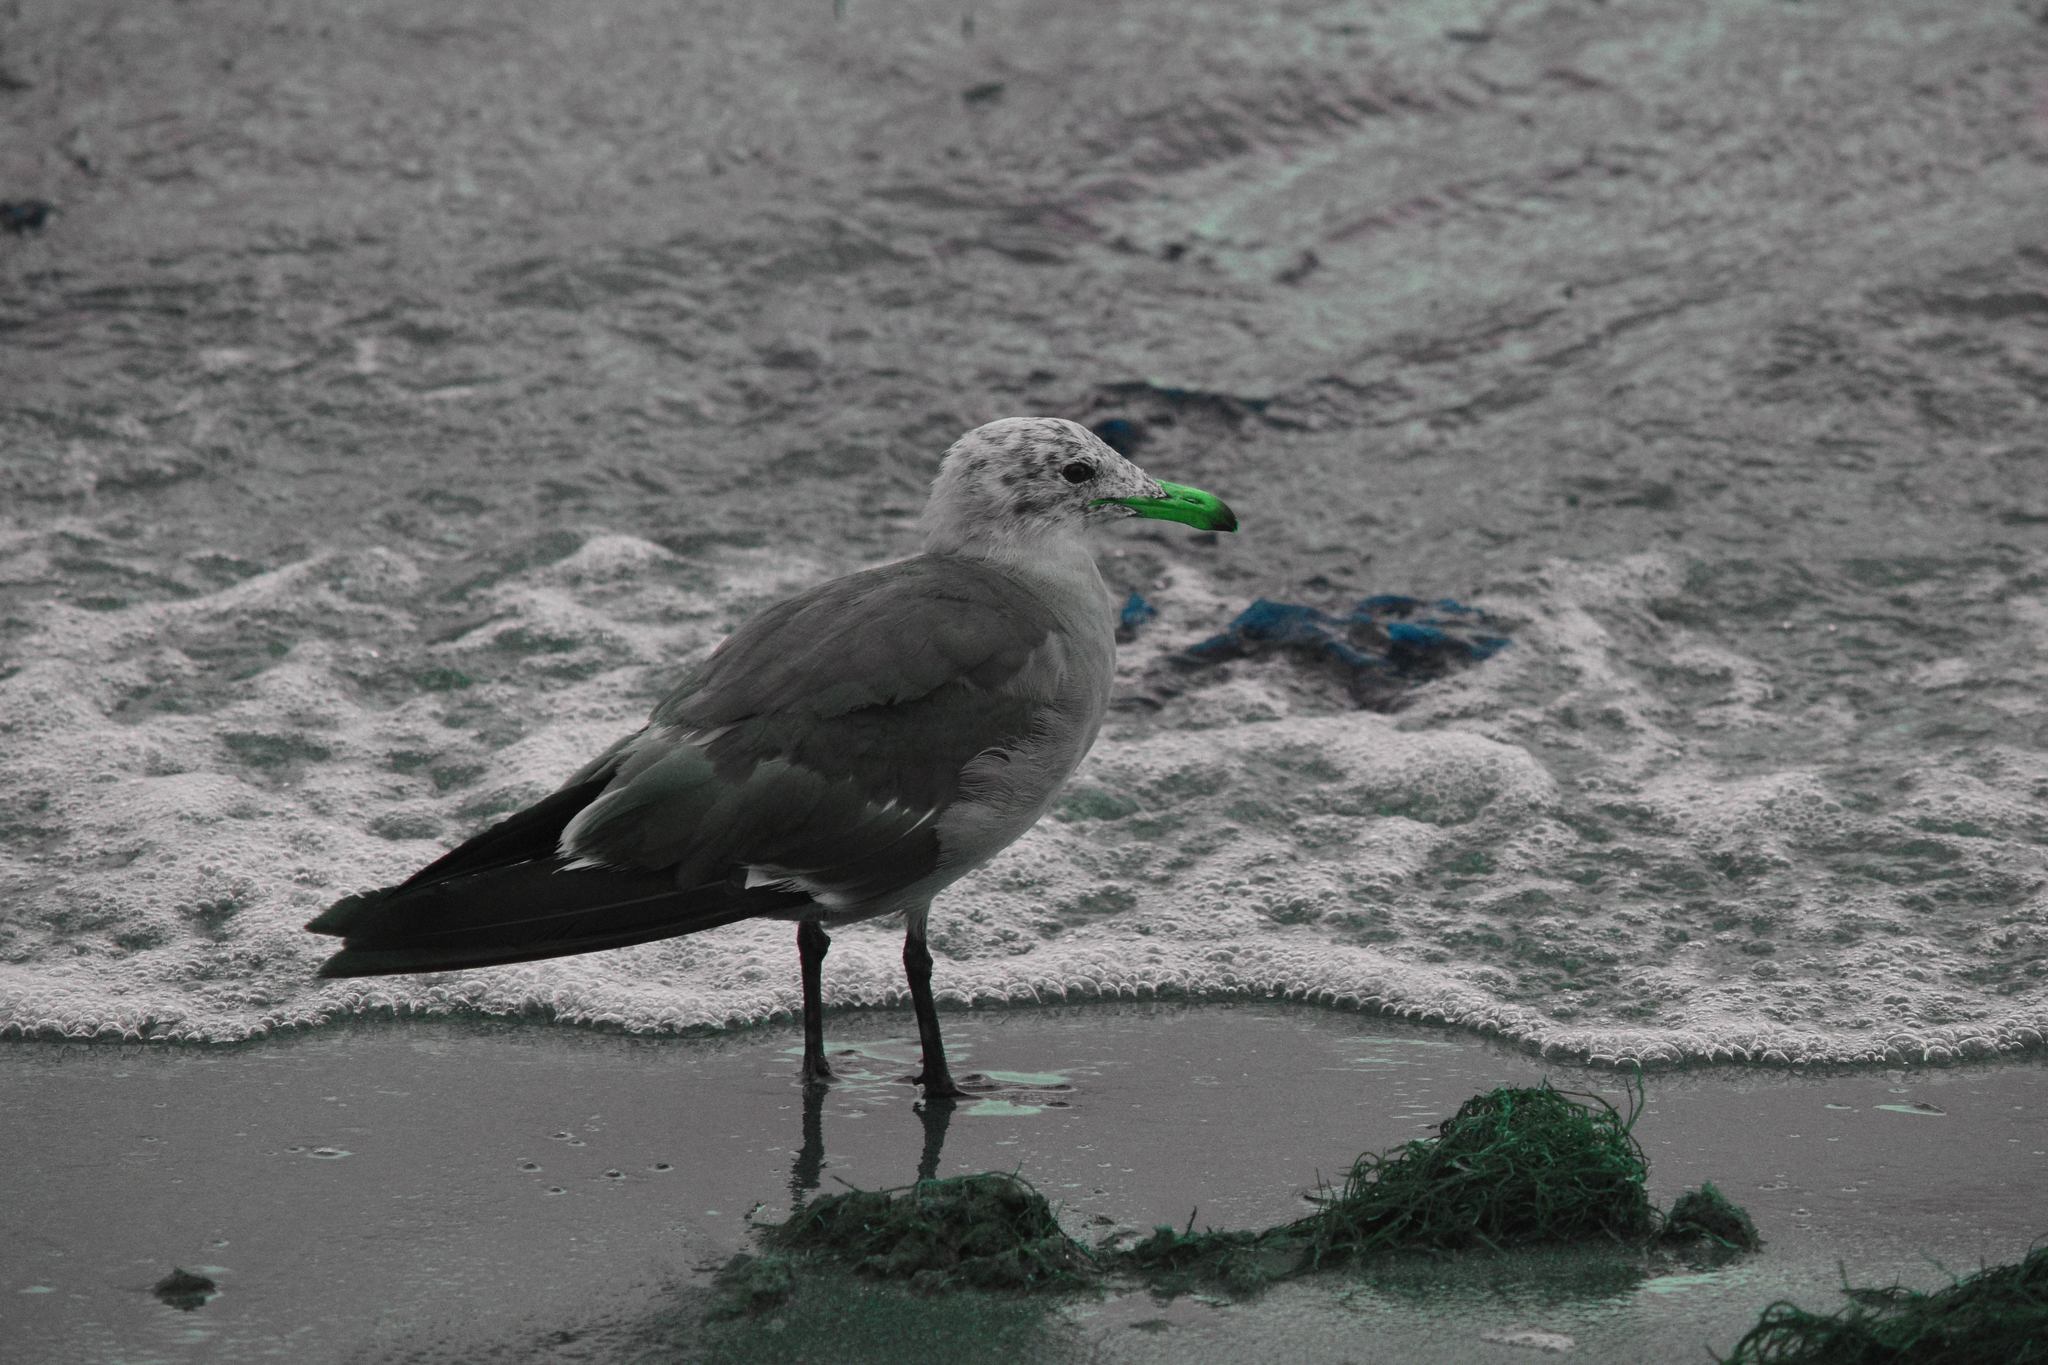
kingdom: Animalia
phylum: Chordata
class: Aves
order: Charadriiformes
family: Laridae
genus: Larus
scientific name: Larus heermanni
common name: Heermann's gull
